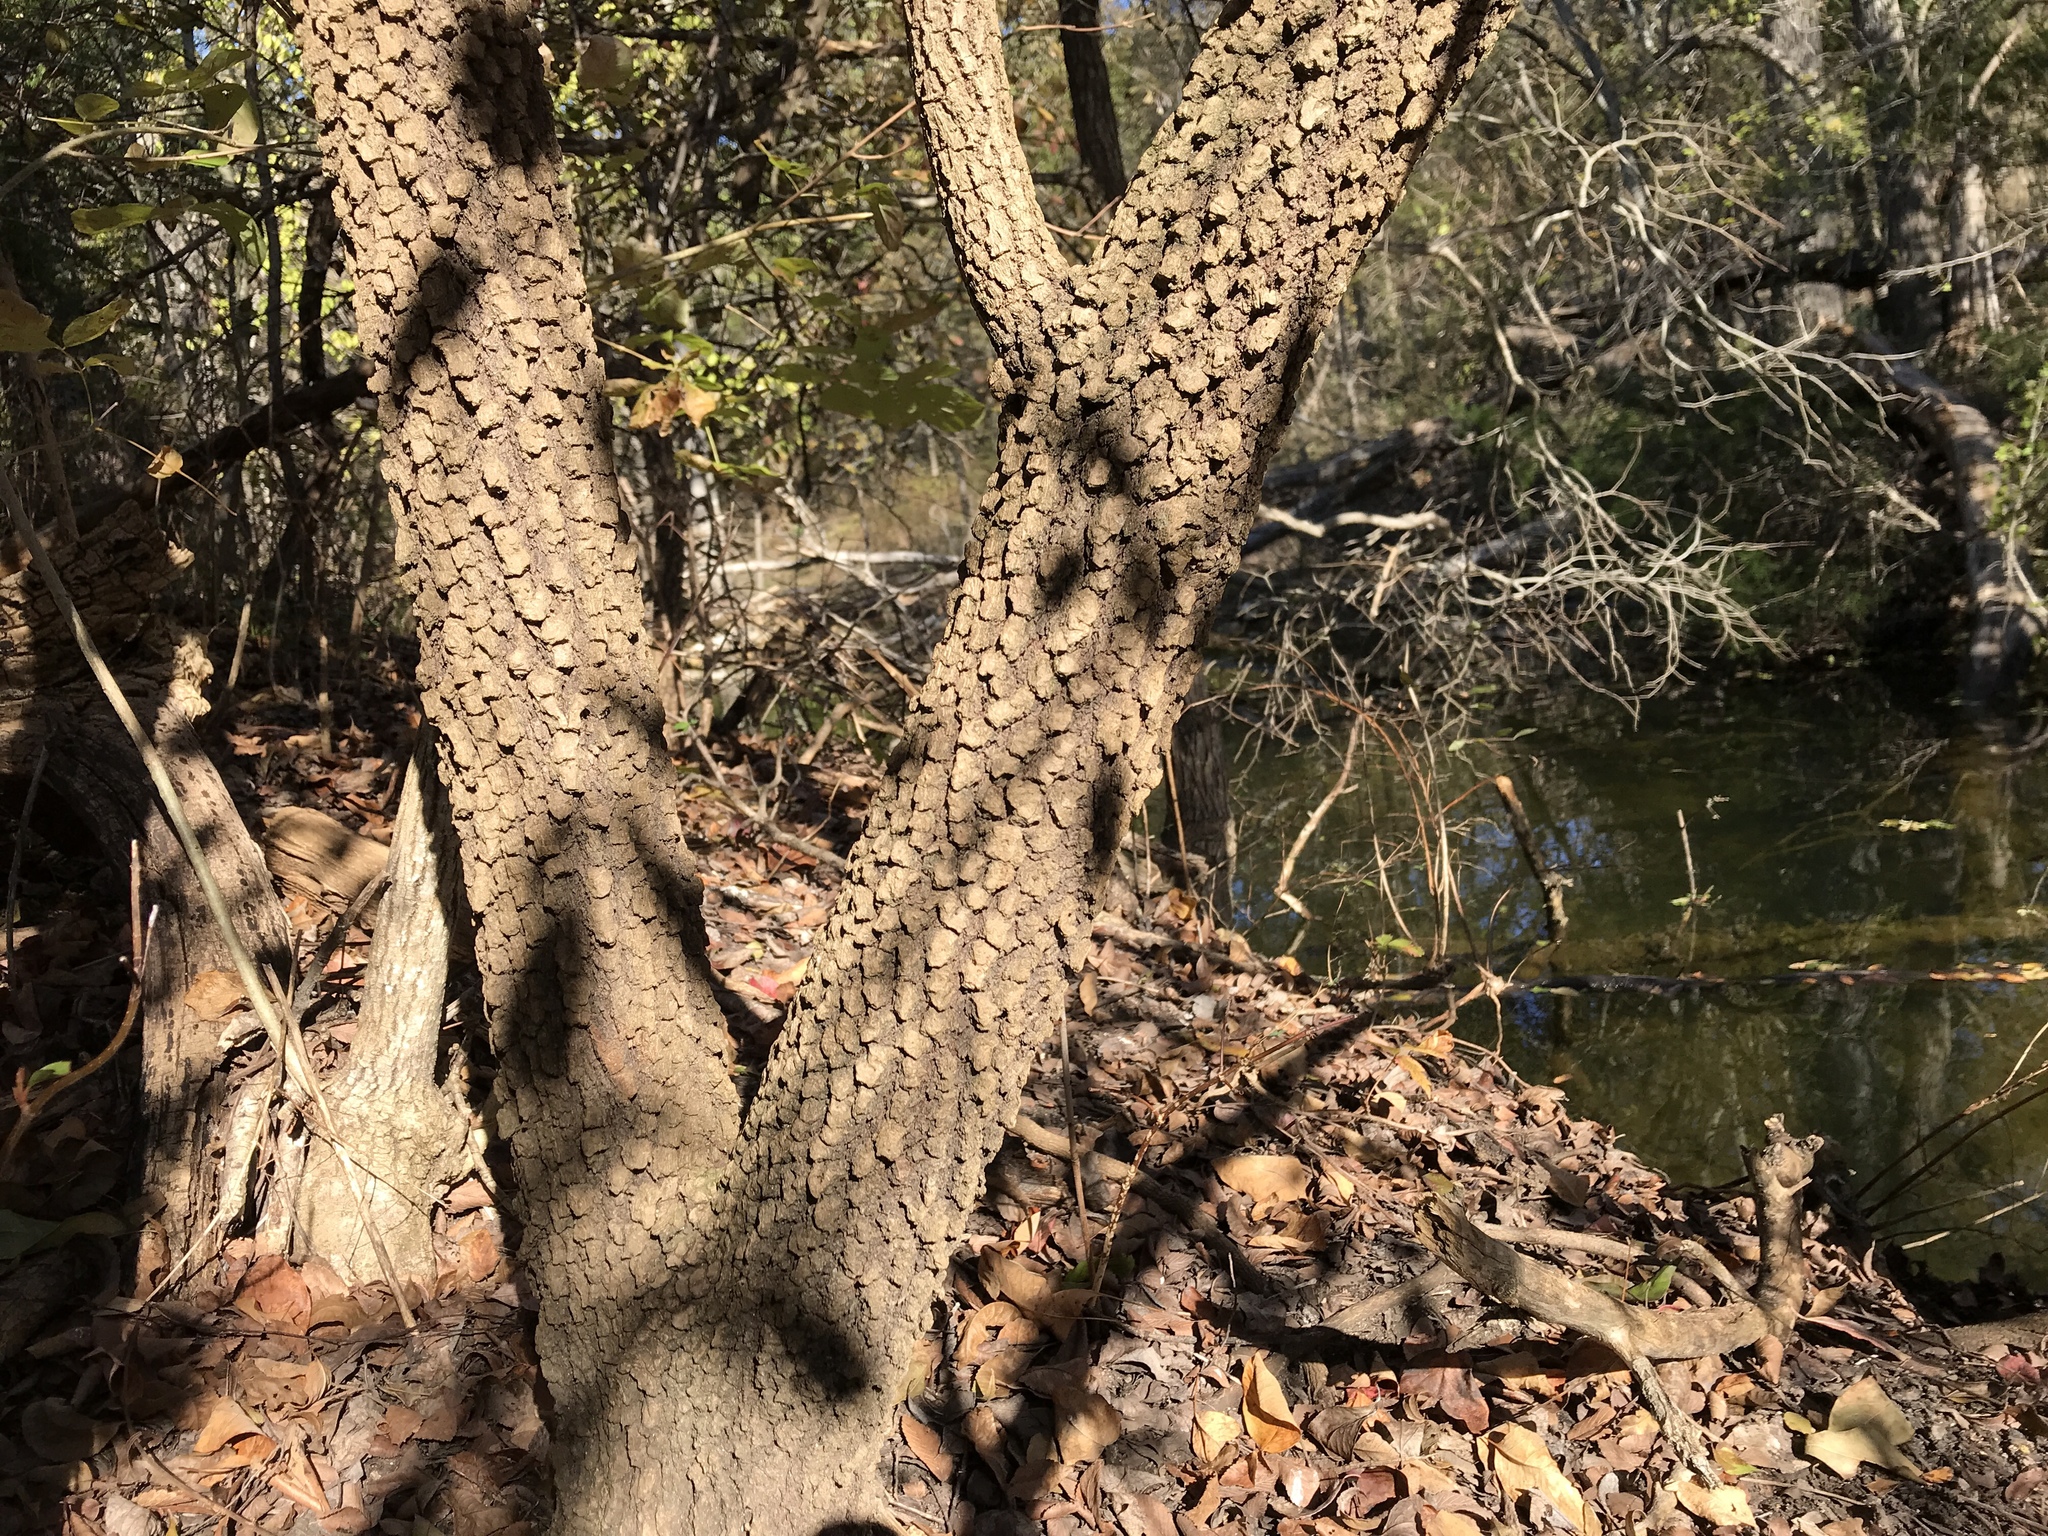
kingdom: Plantae
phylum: Tracheophyta
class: Magnoliopsida
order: Dipsacales
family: Viburnaceae
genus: Viburnum
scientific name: Viburnum rufidulum
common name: Blue haw
